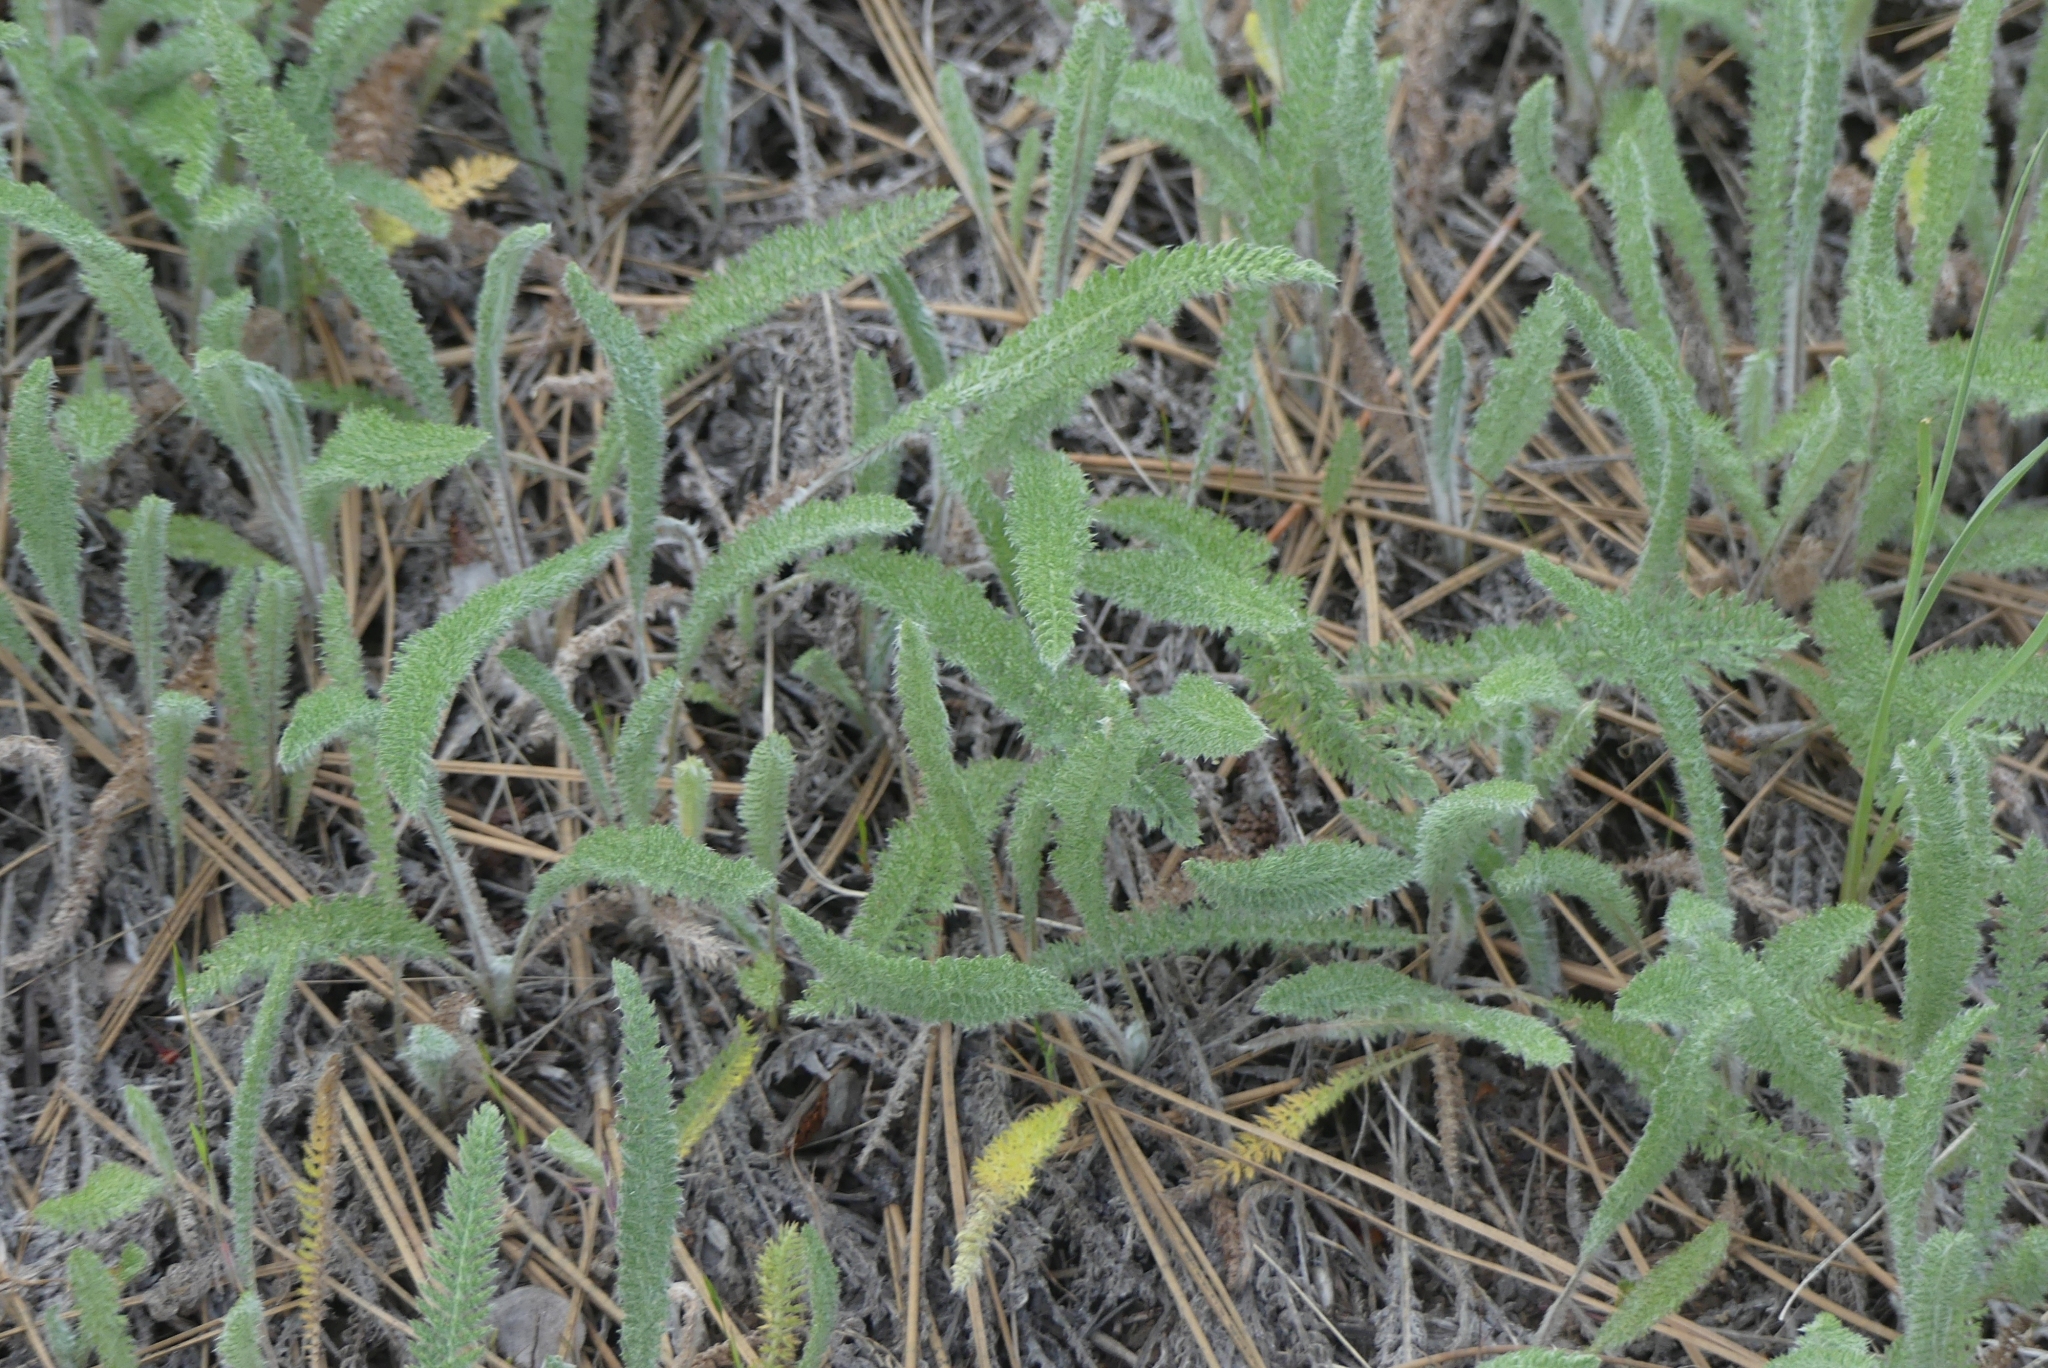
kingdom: Plantae
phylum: Tracheophyta
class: Magnoliopsida
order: Asterales
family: Asteraceae
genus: Achillea
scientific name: Achillea millefolium
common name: Yarrow
